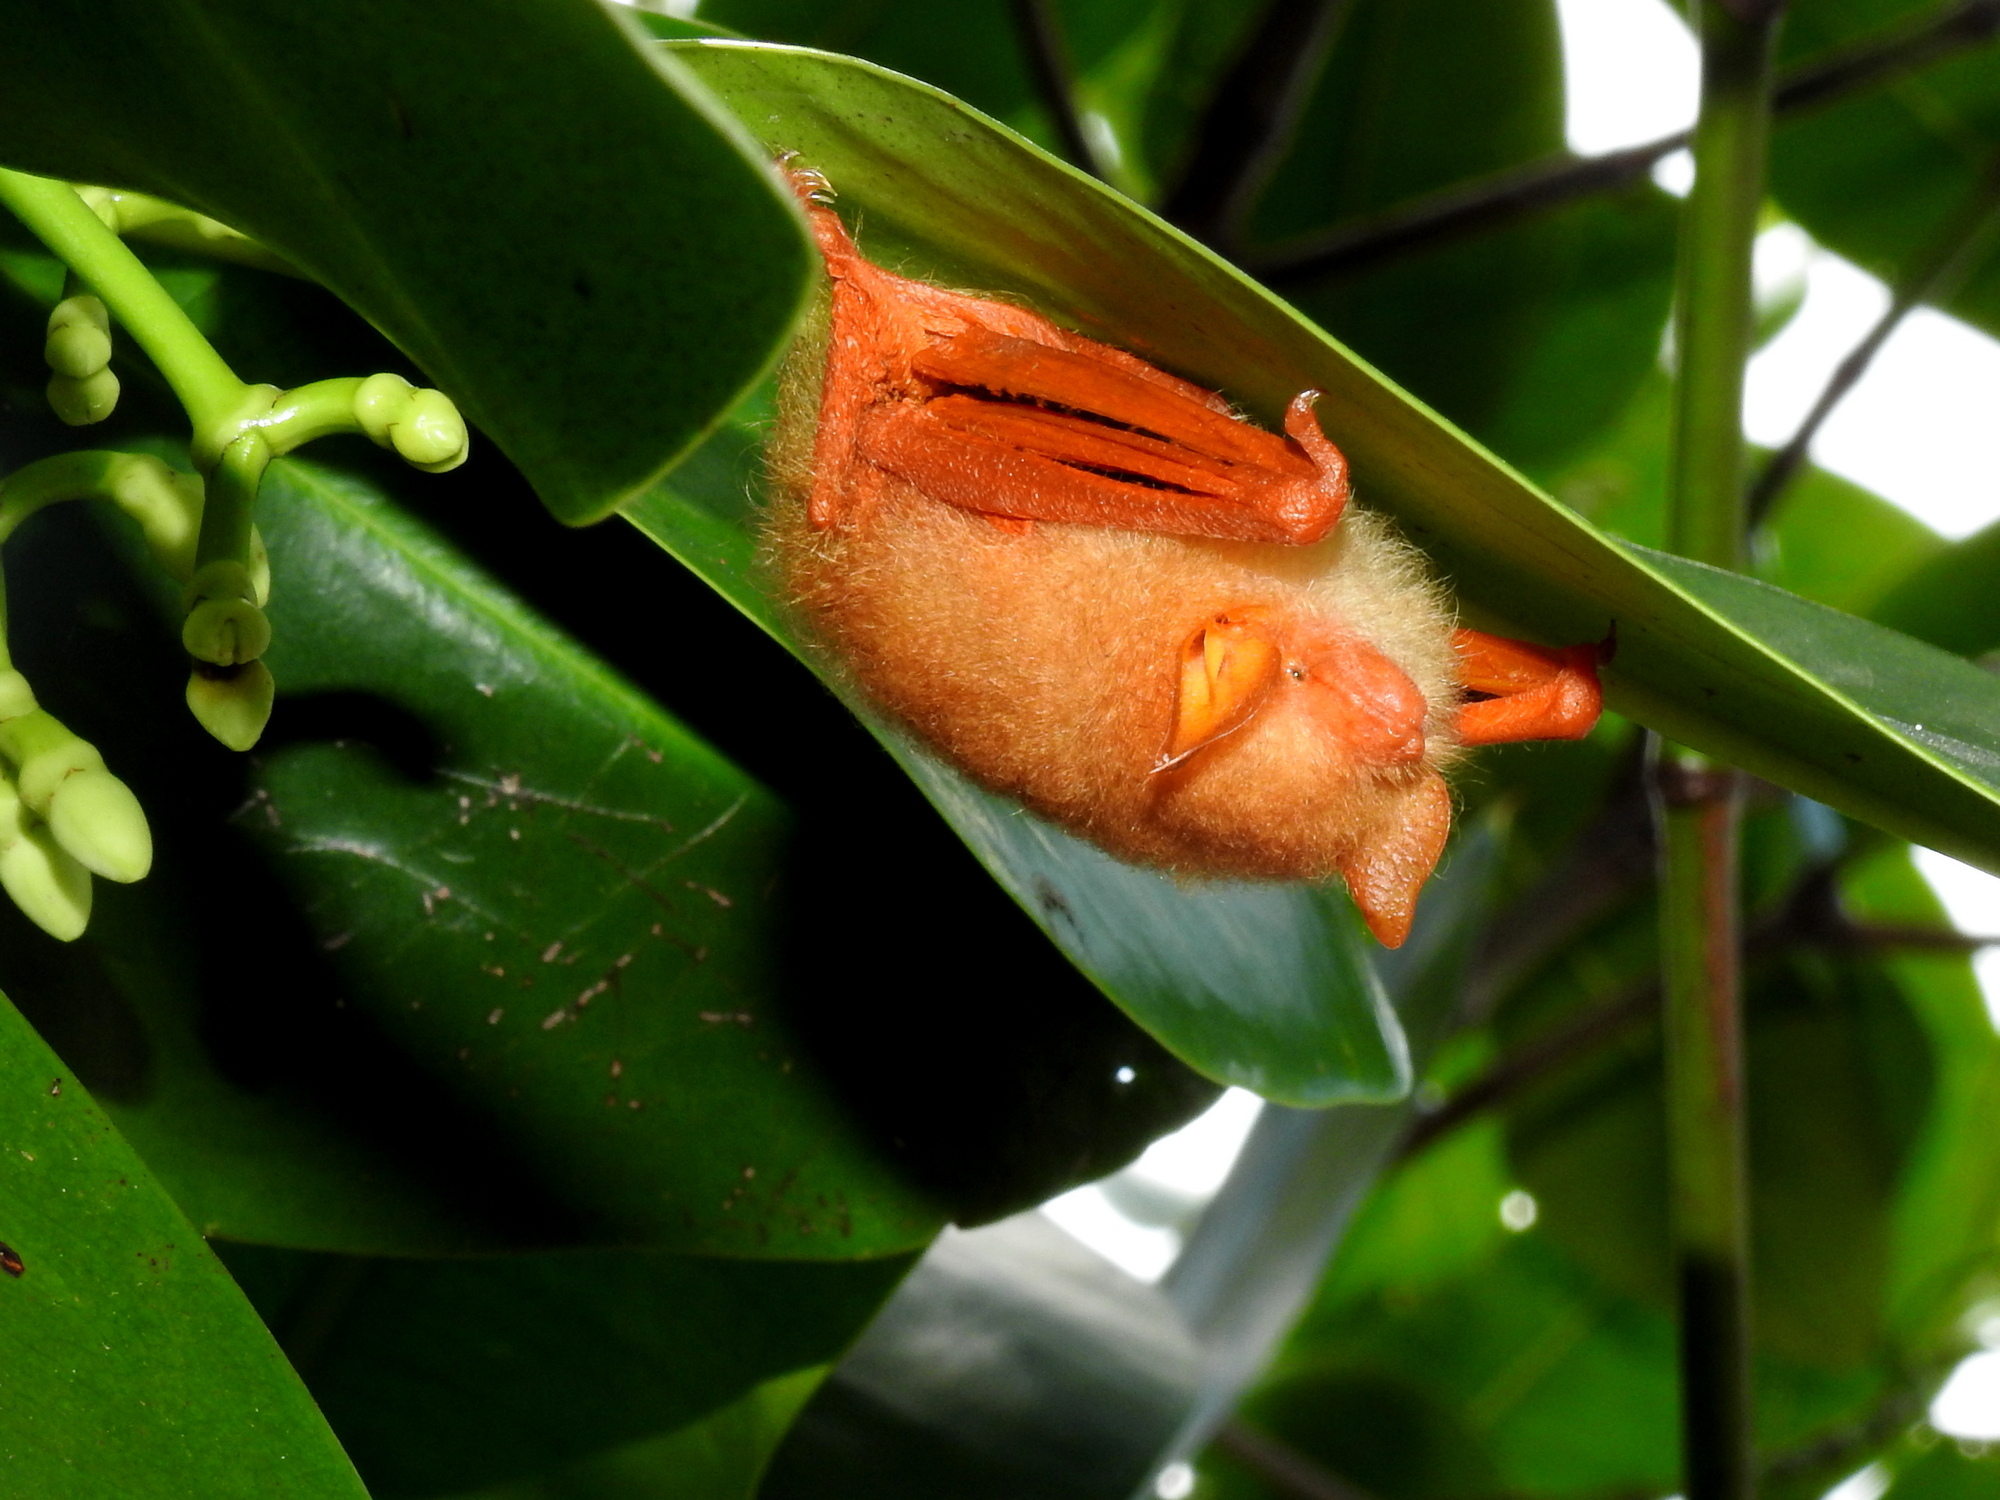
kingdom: Animalia
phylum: Chordata
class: Mammalia
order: Chiroptera
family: Vespertilionidae
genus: Kerivoula
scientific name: Kerivoula picta
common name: Painted woolly bat
